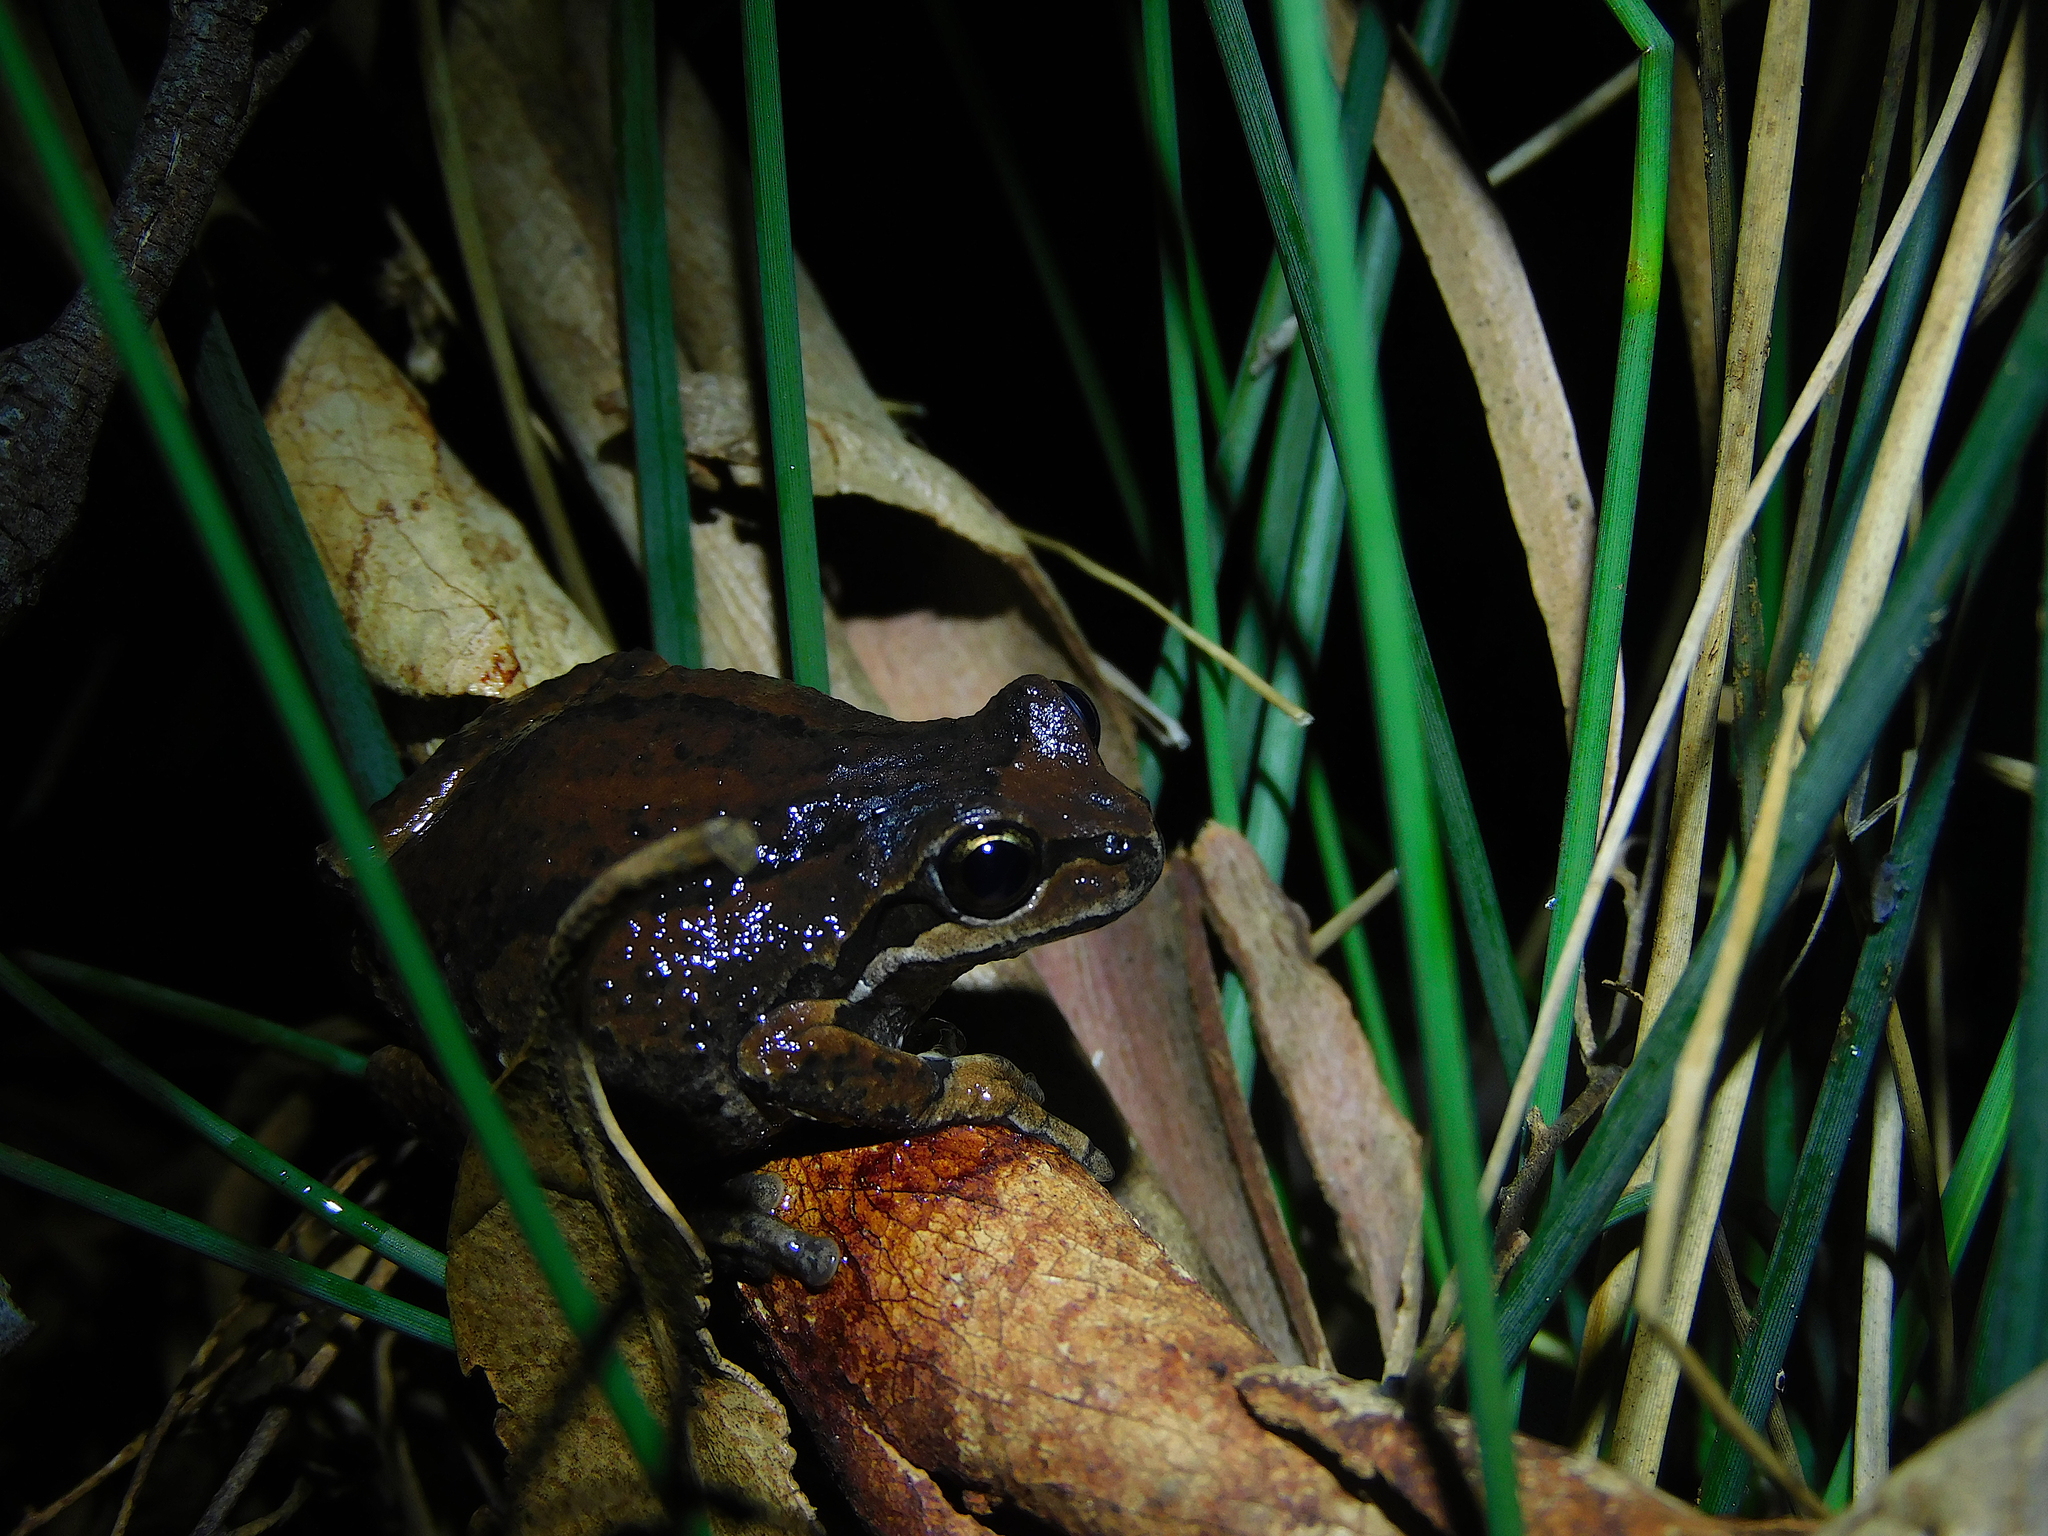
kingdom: Animalia
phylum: Chordata
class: Amphibia
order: Anura
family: Pelodryadidae
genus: Litoria
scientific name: Litoria ewingii
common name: Southern brown tree frog
